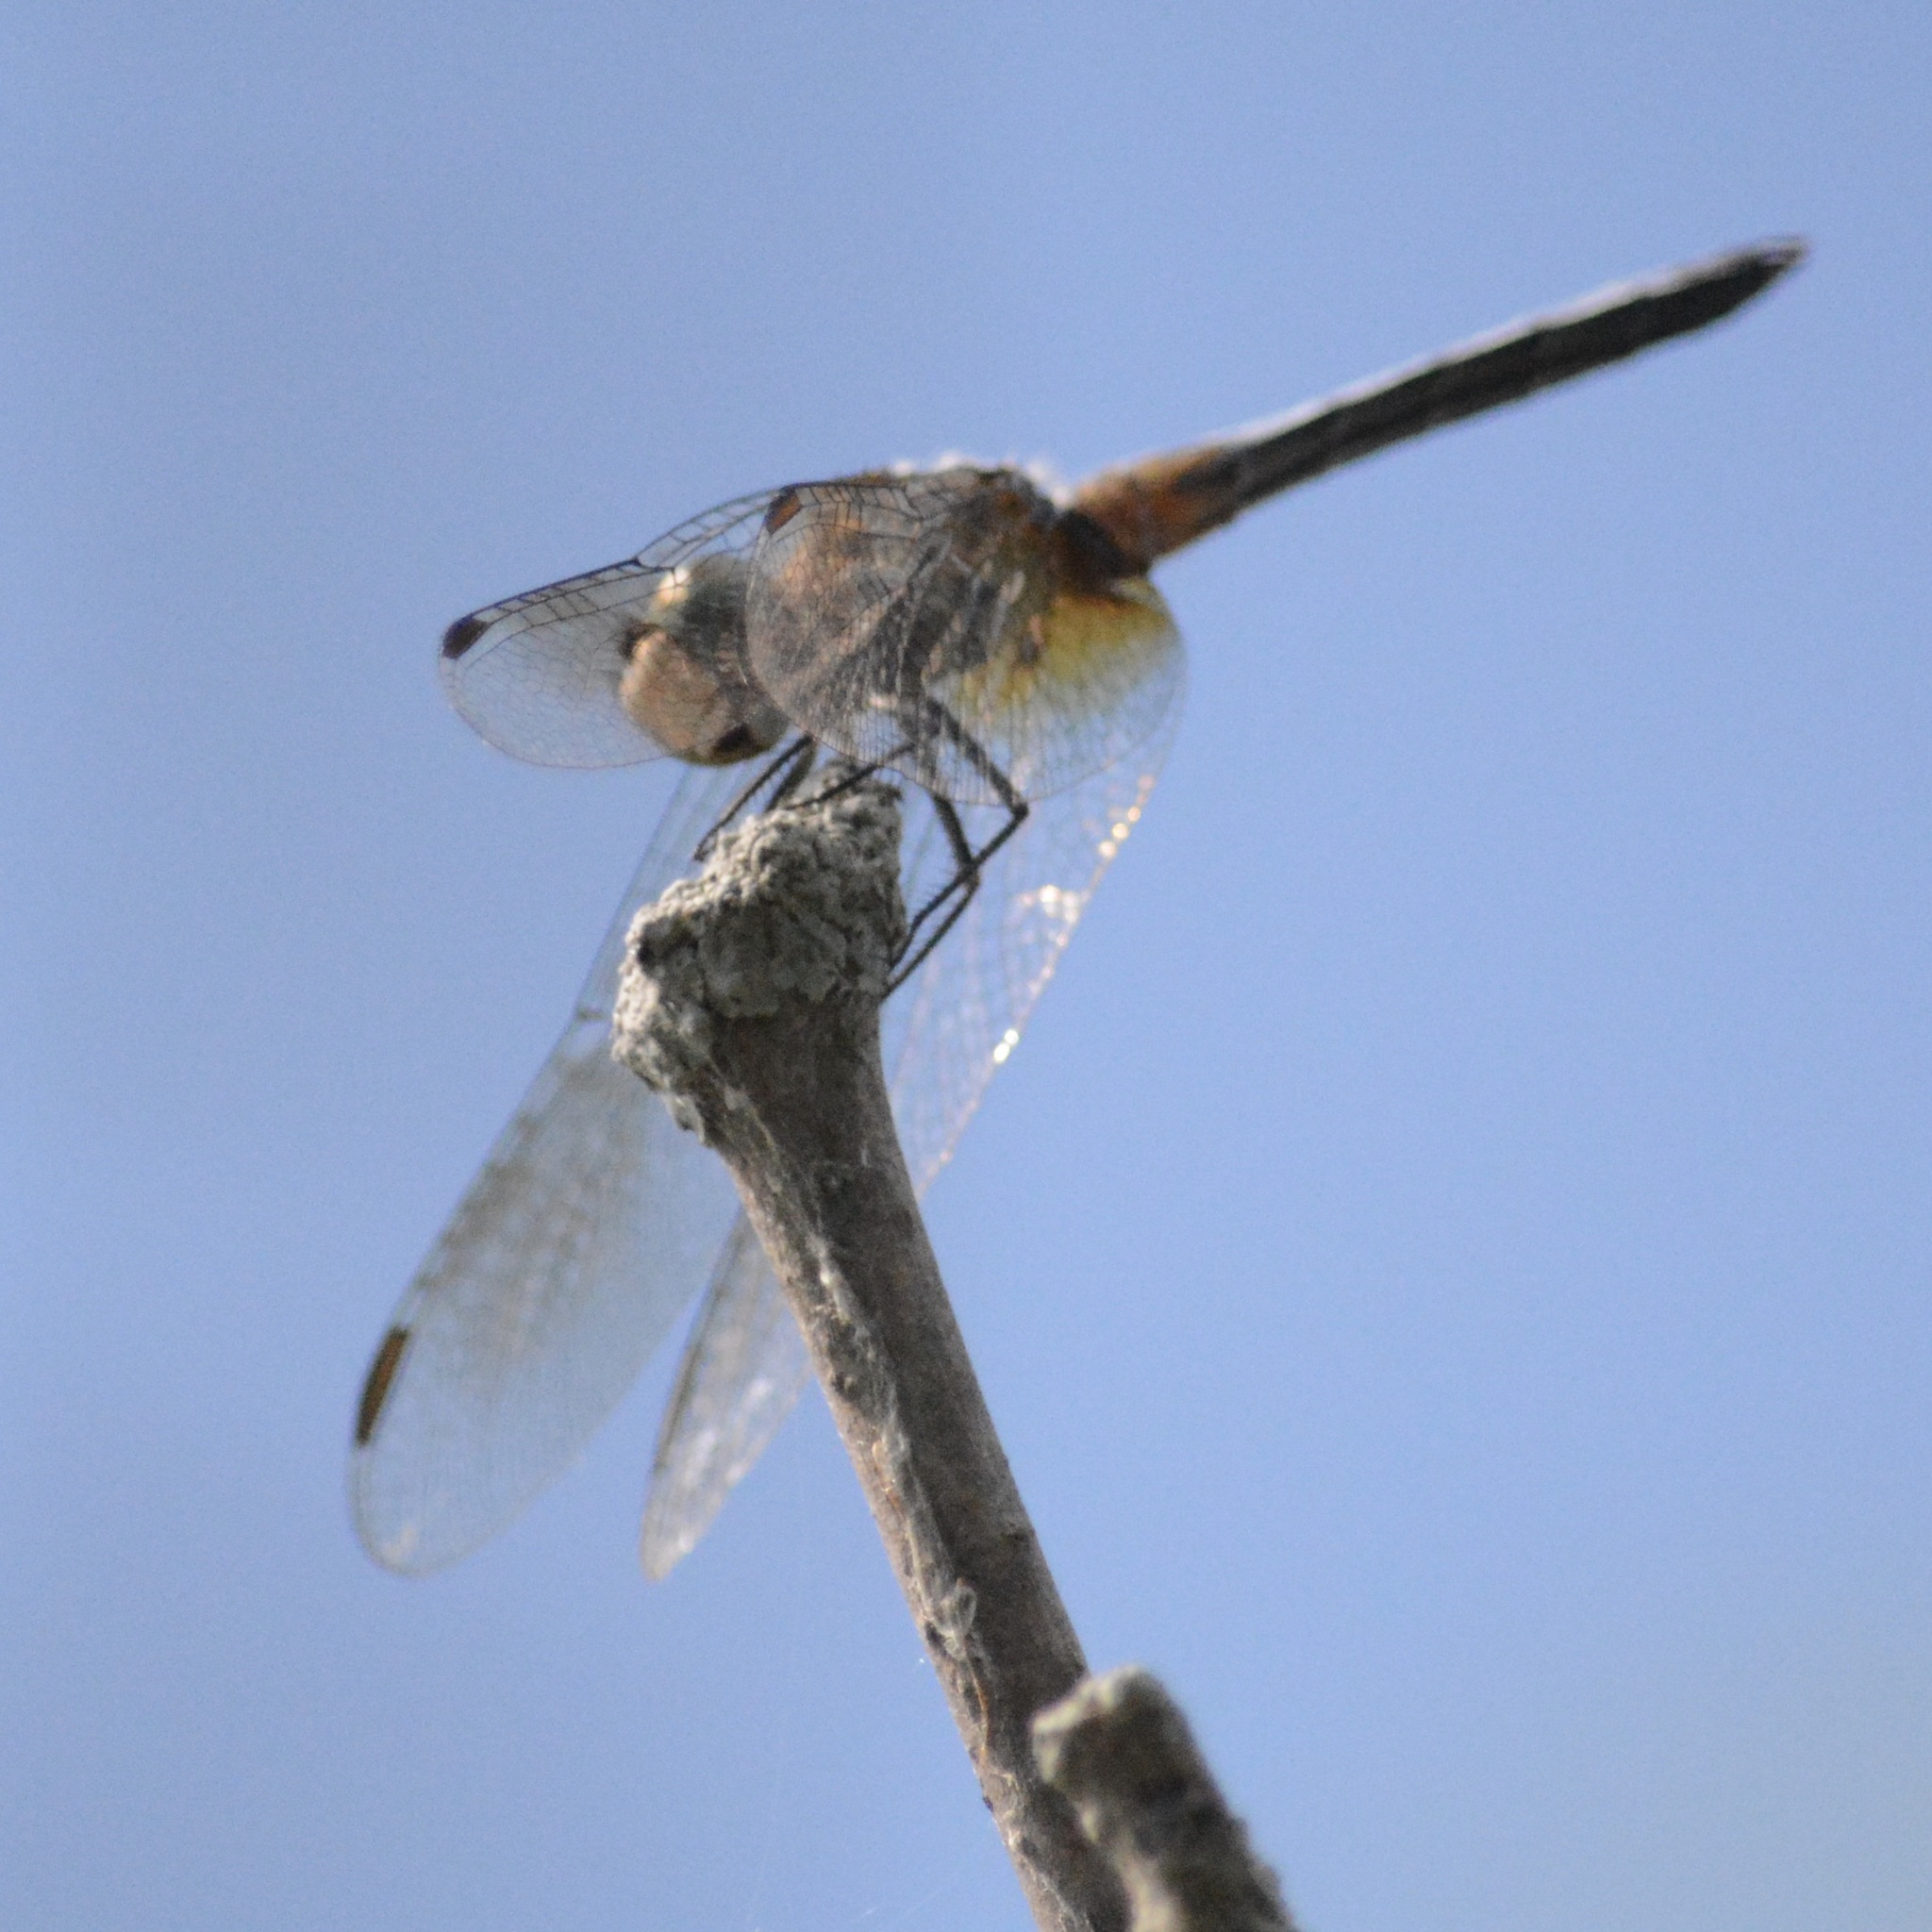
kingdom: Animalia
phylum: Arthropoda
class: Insecta
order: Odonata
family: Libellulidae
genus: Pachydiplax
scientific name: Pachydiplax longipennis
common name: Blue dasher
